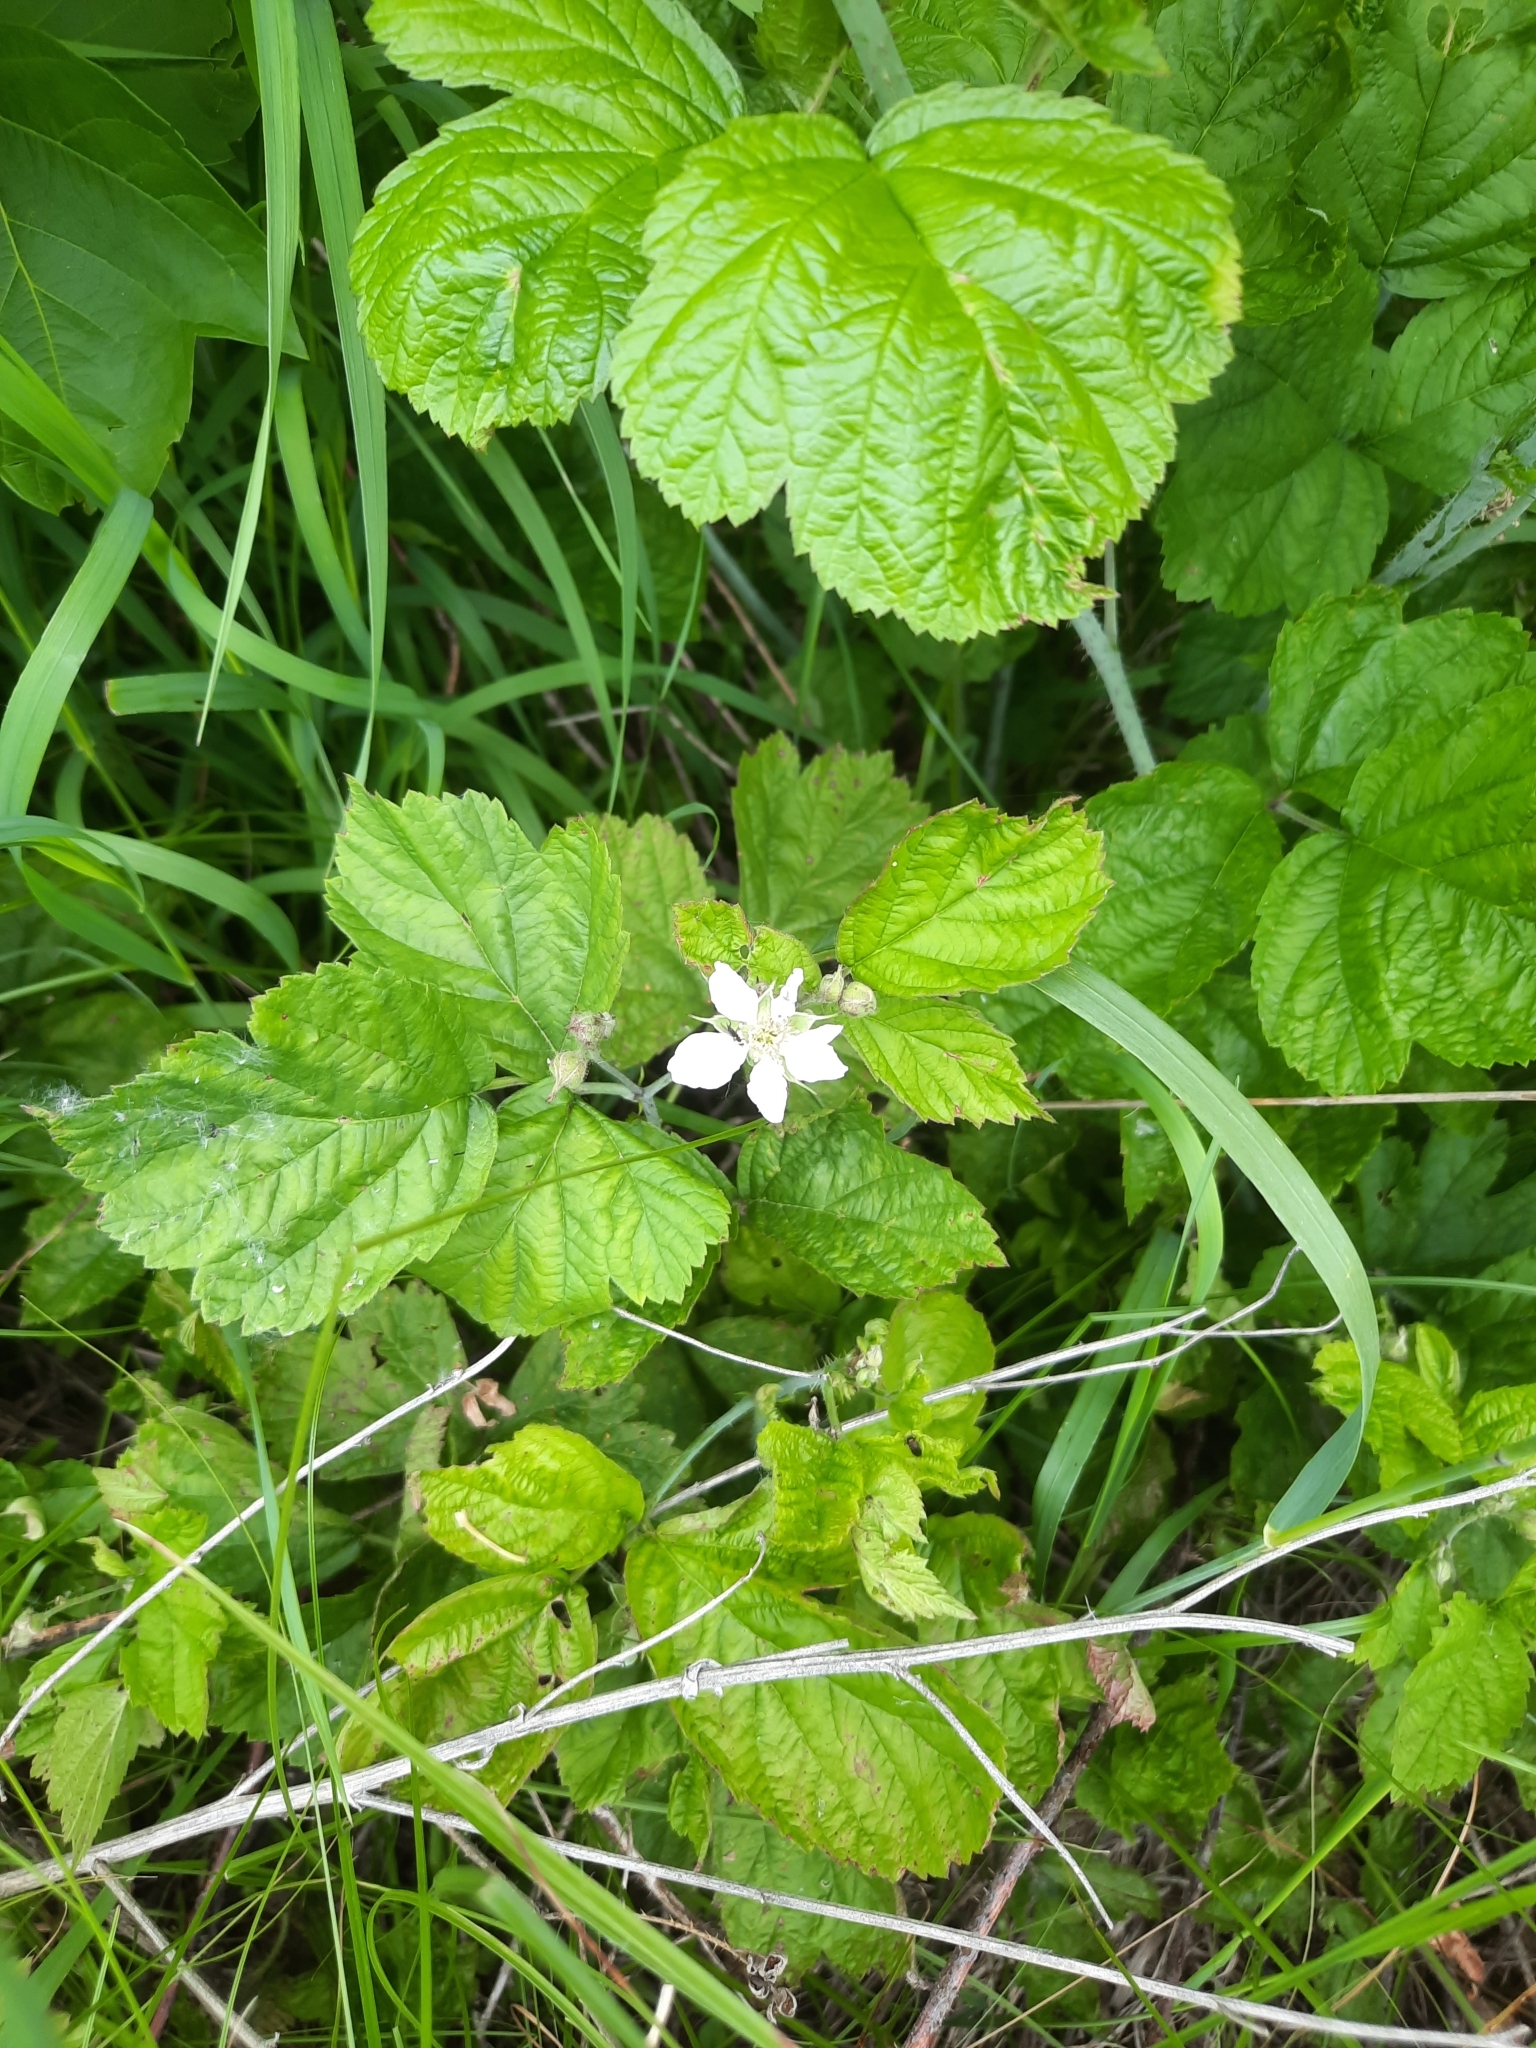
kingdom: Plantae
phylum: Tracheophyta
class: Magnoliopsida
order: Rosales
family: Rosaceae
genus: Rubus
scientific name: Rubus caesius
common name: Dewberry
